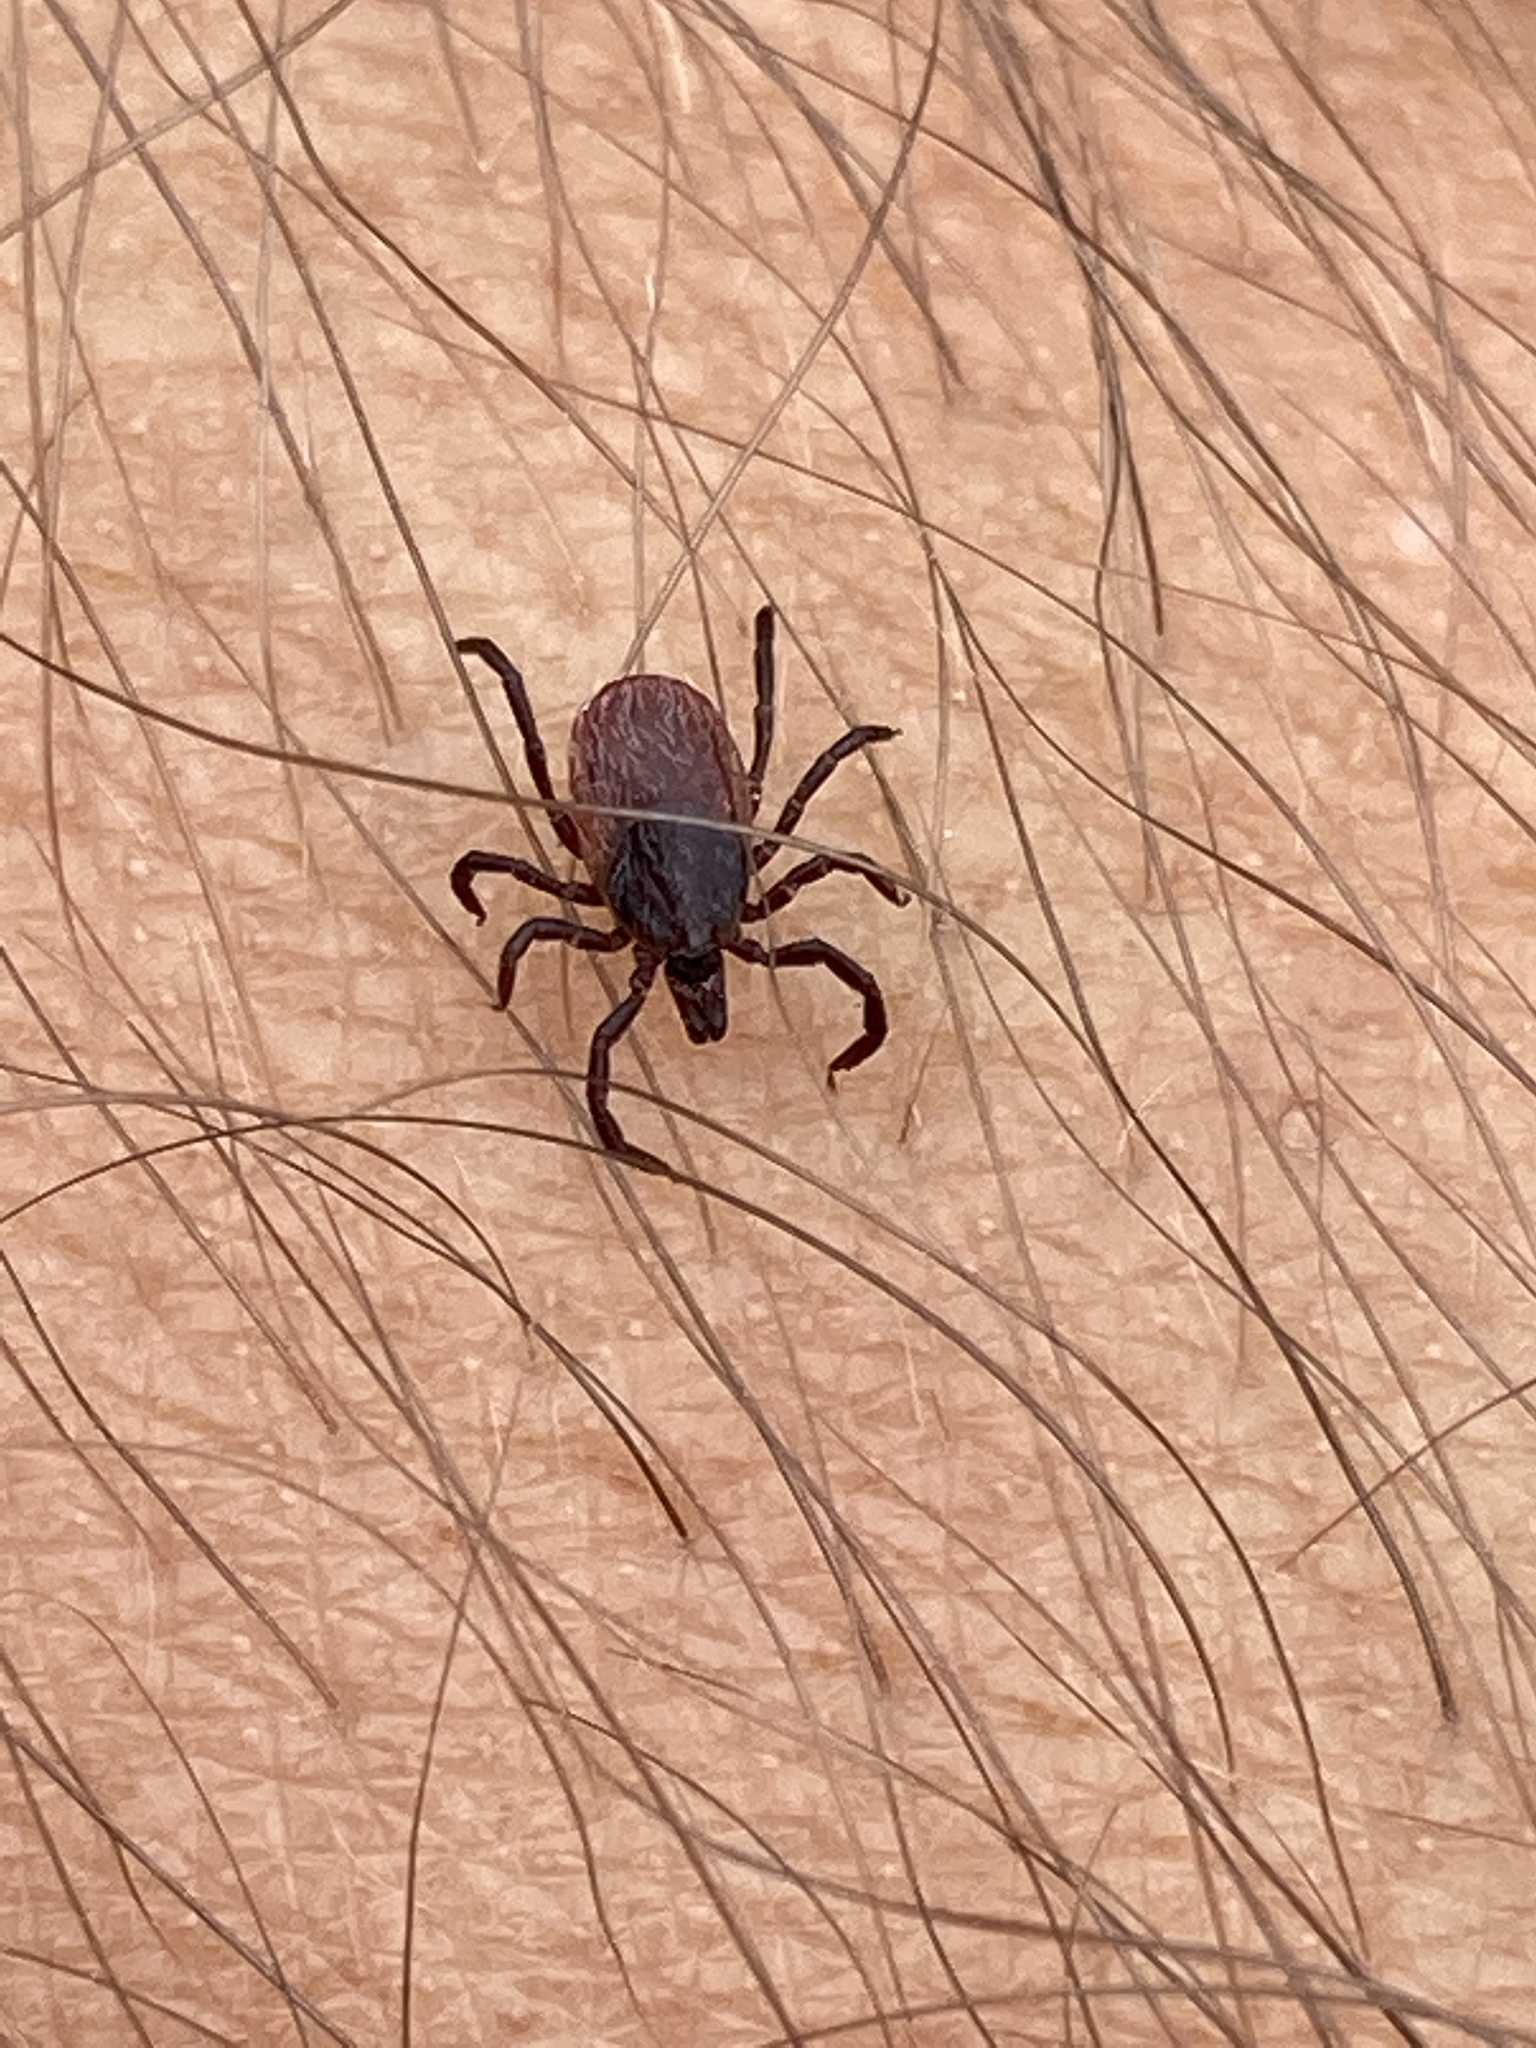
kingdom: Animalia
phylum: Arthropoda
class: Arachnida
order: Ixodida
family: Ixodidae
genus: Ixodes
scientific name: Ixodes pacificus
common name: California black-legged tick
